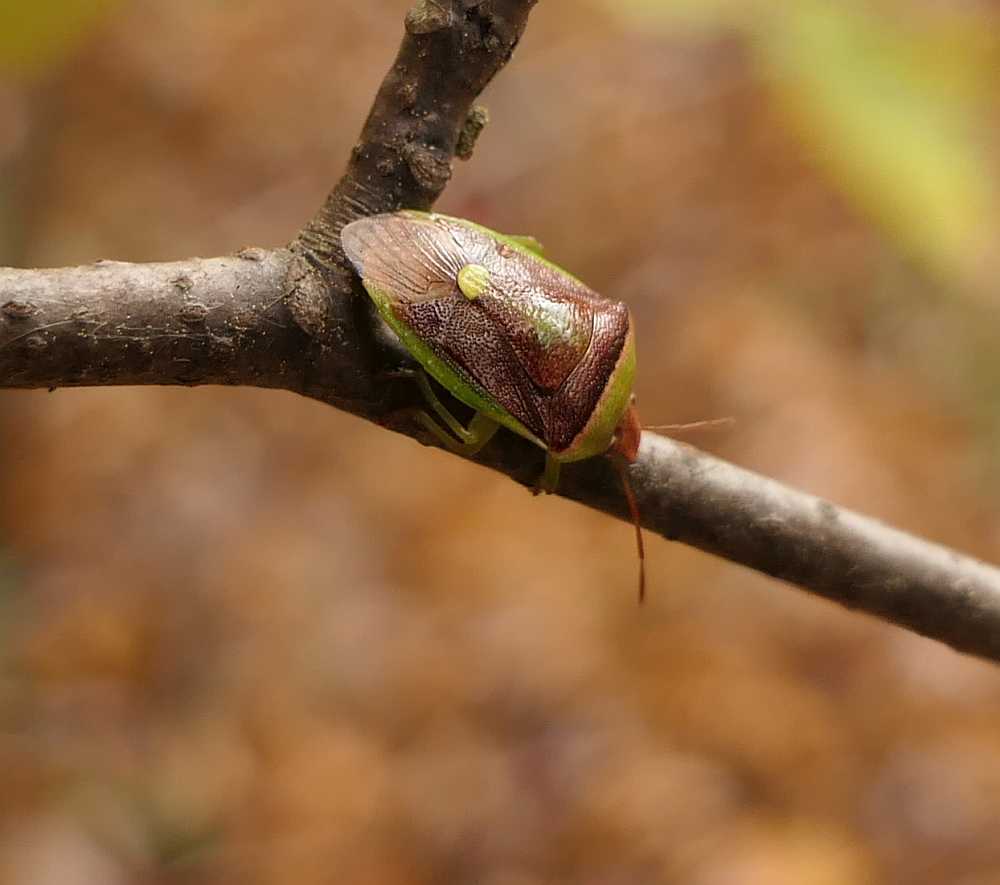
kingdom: Animalia
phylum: Arthropoda
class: Insecta
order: Hemiptera
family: Pentatomidae
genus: Banasa
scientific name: Banasa dimidiata
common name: Green burgundy stink bug
